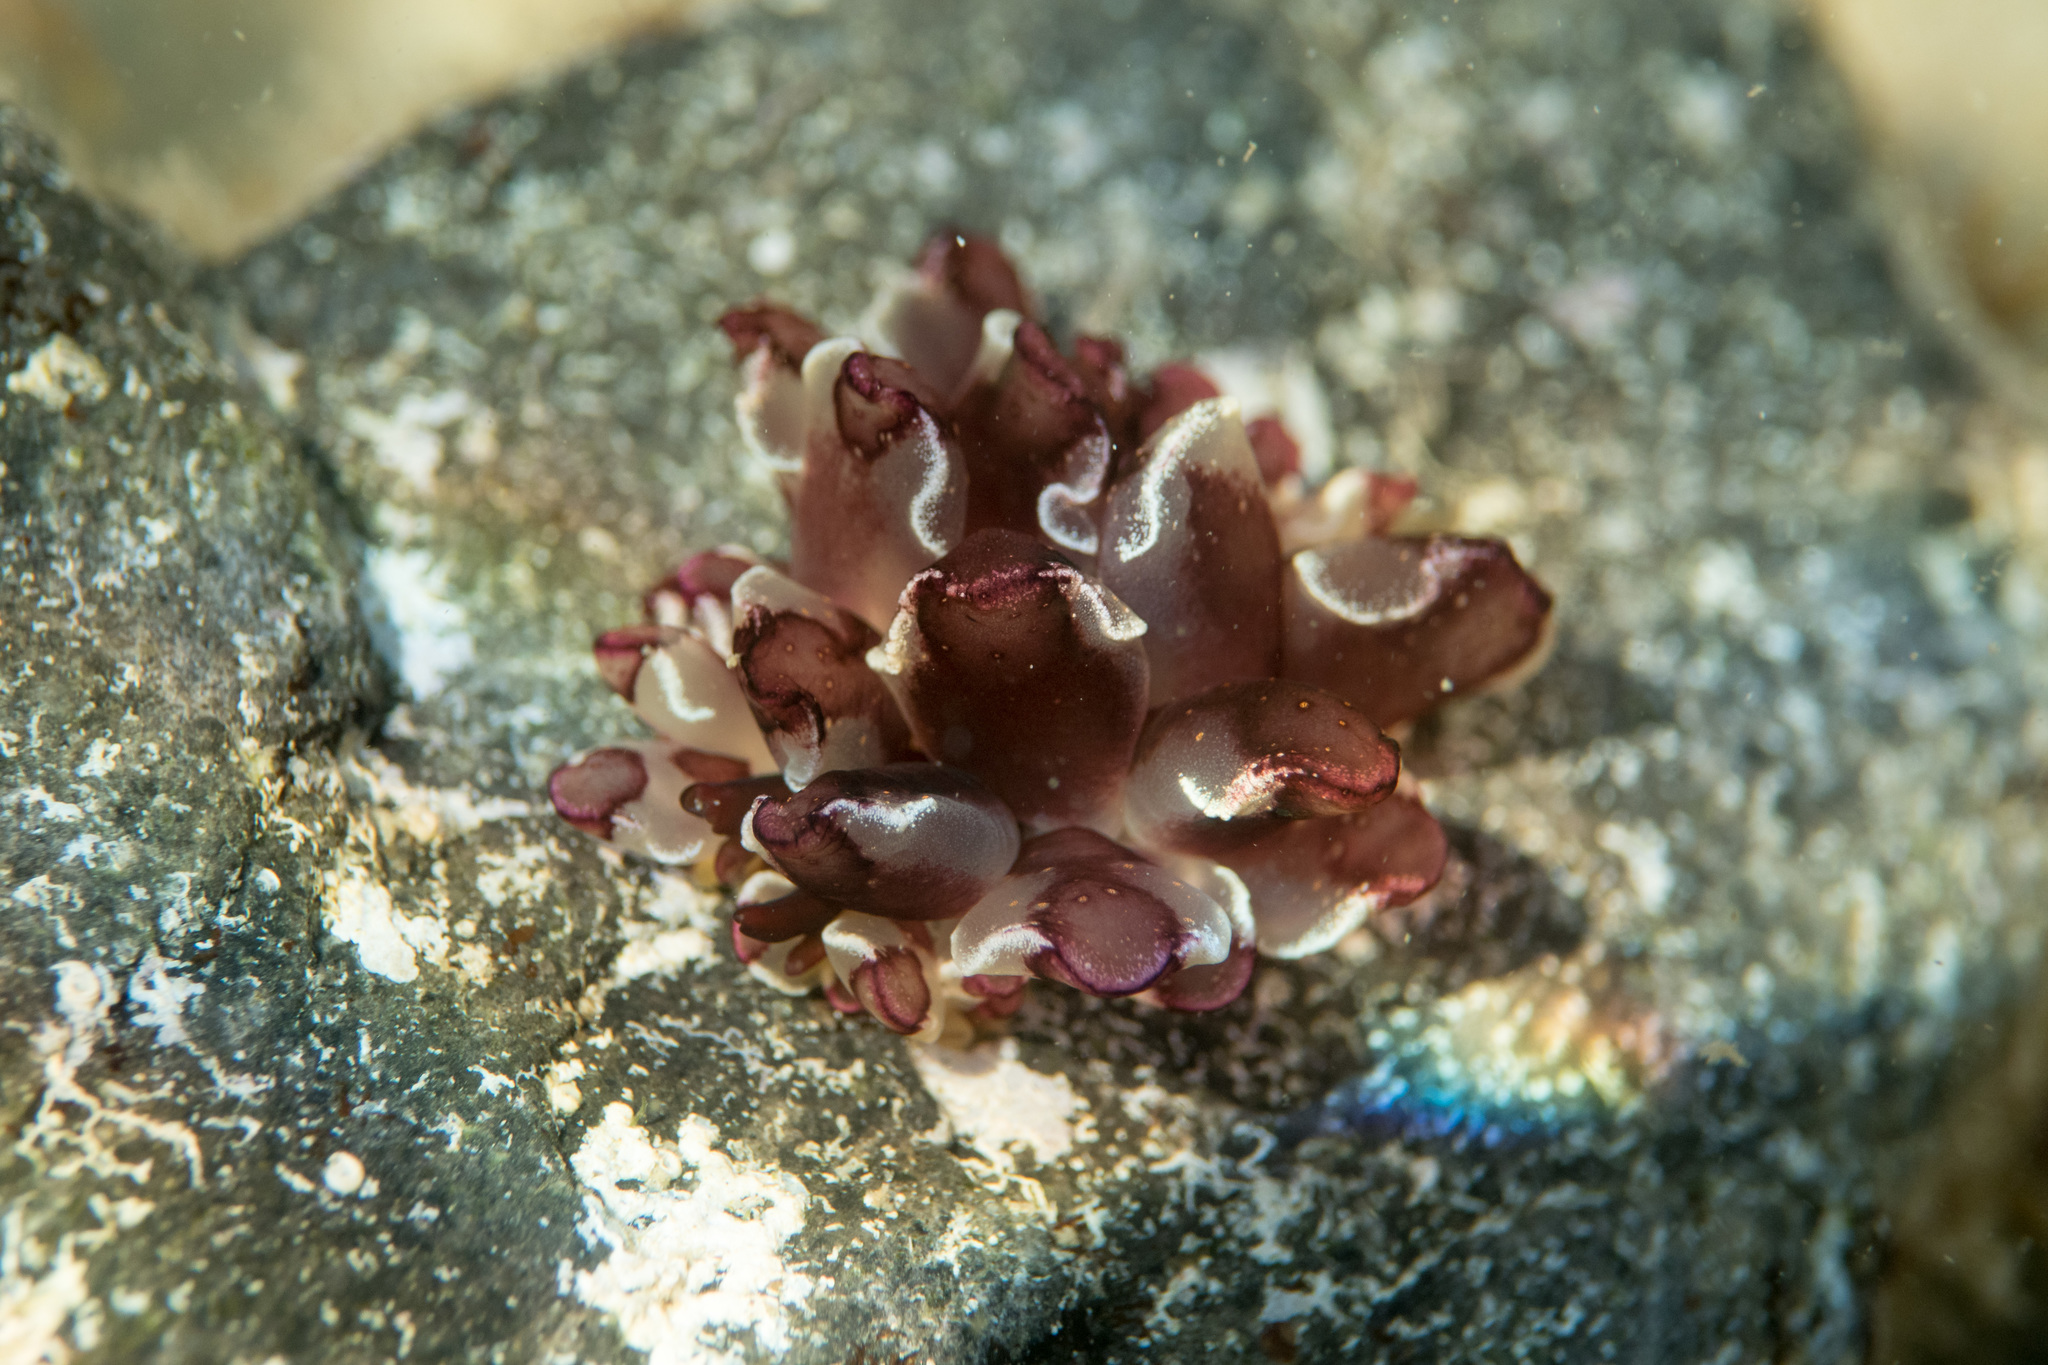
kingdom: Animalia
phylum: Mollusca
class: Gastropoda
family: Hermaeidae
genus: Cyerce
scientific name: Cyerce cristallina
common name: Harlequin glass-slug
